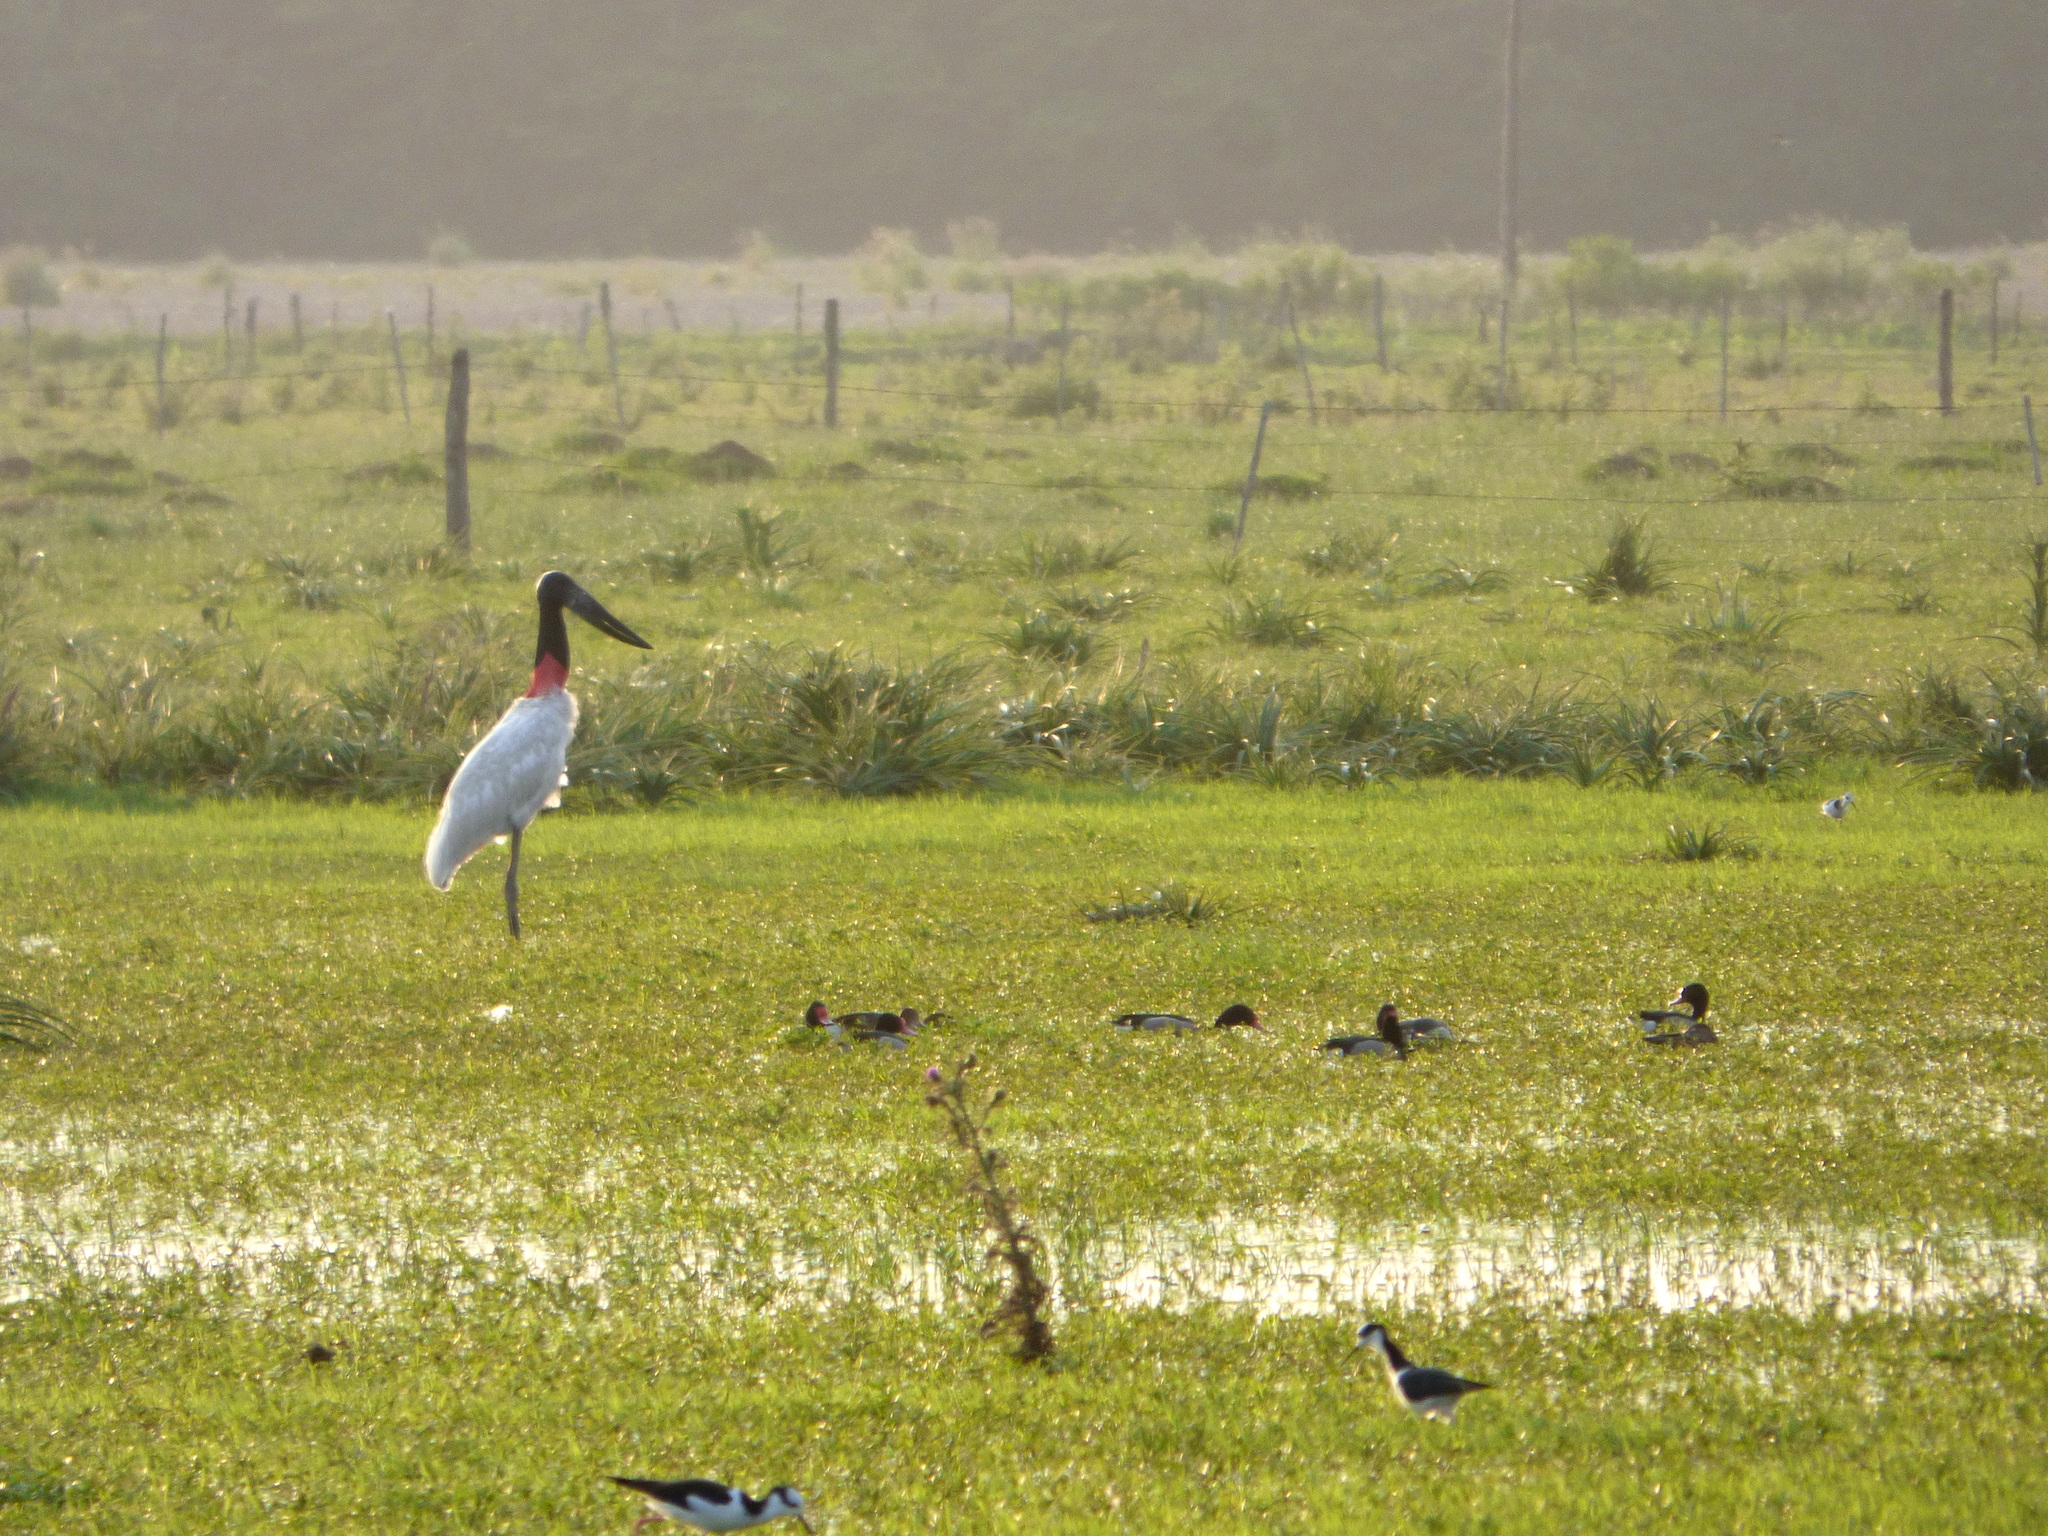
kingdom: Animalia
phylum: Chordata
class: Aves
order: Ciconiiformes
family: Ciconiidae
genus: Jabiru
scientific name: Jabiru mycteria
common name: Jabiru
